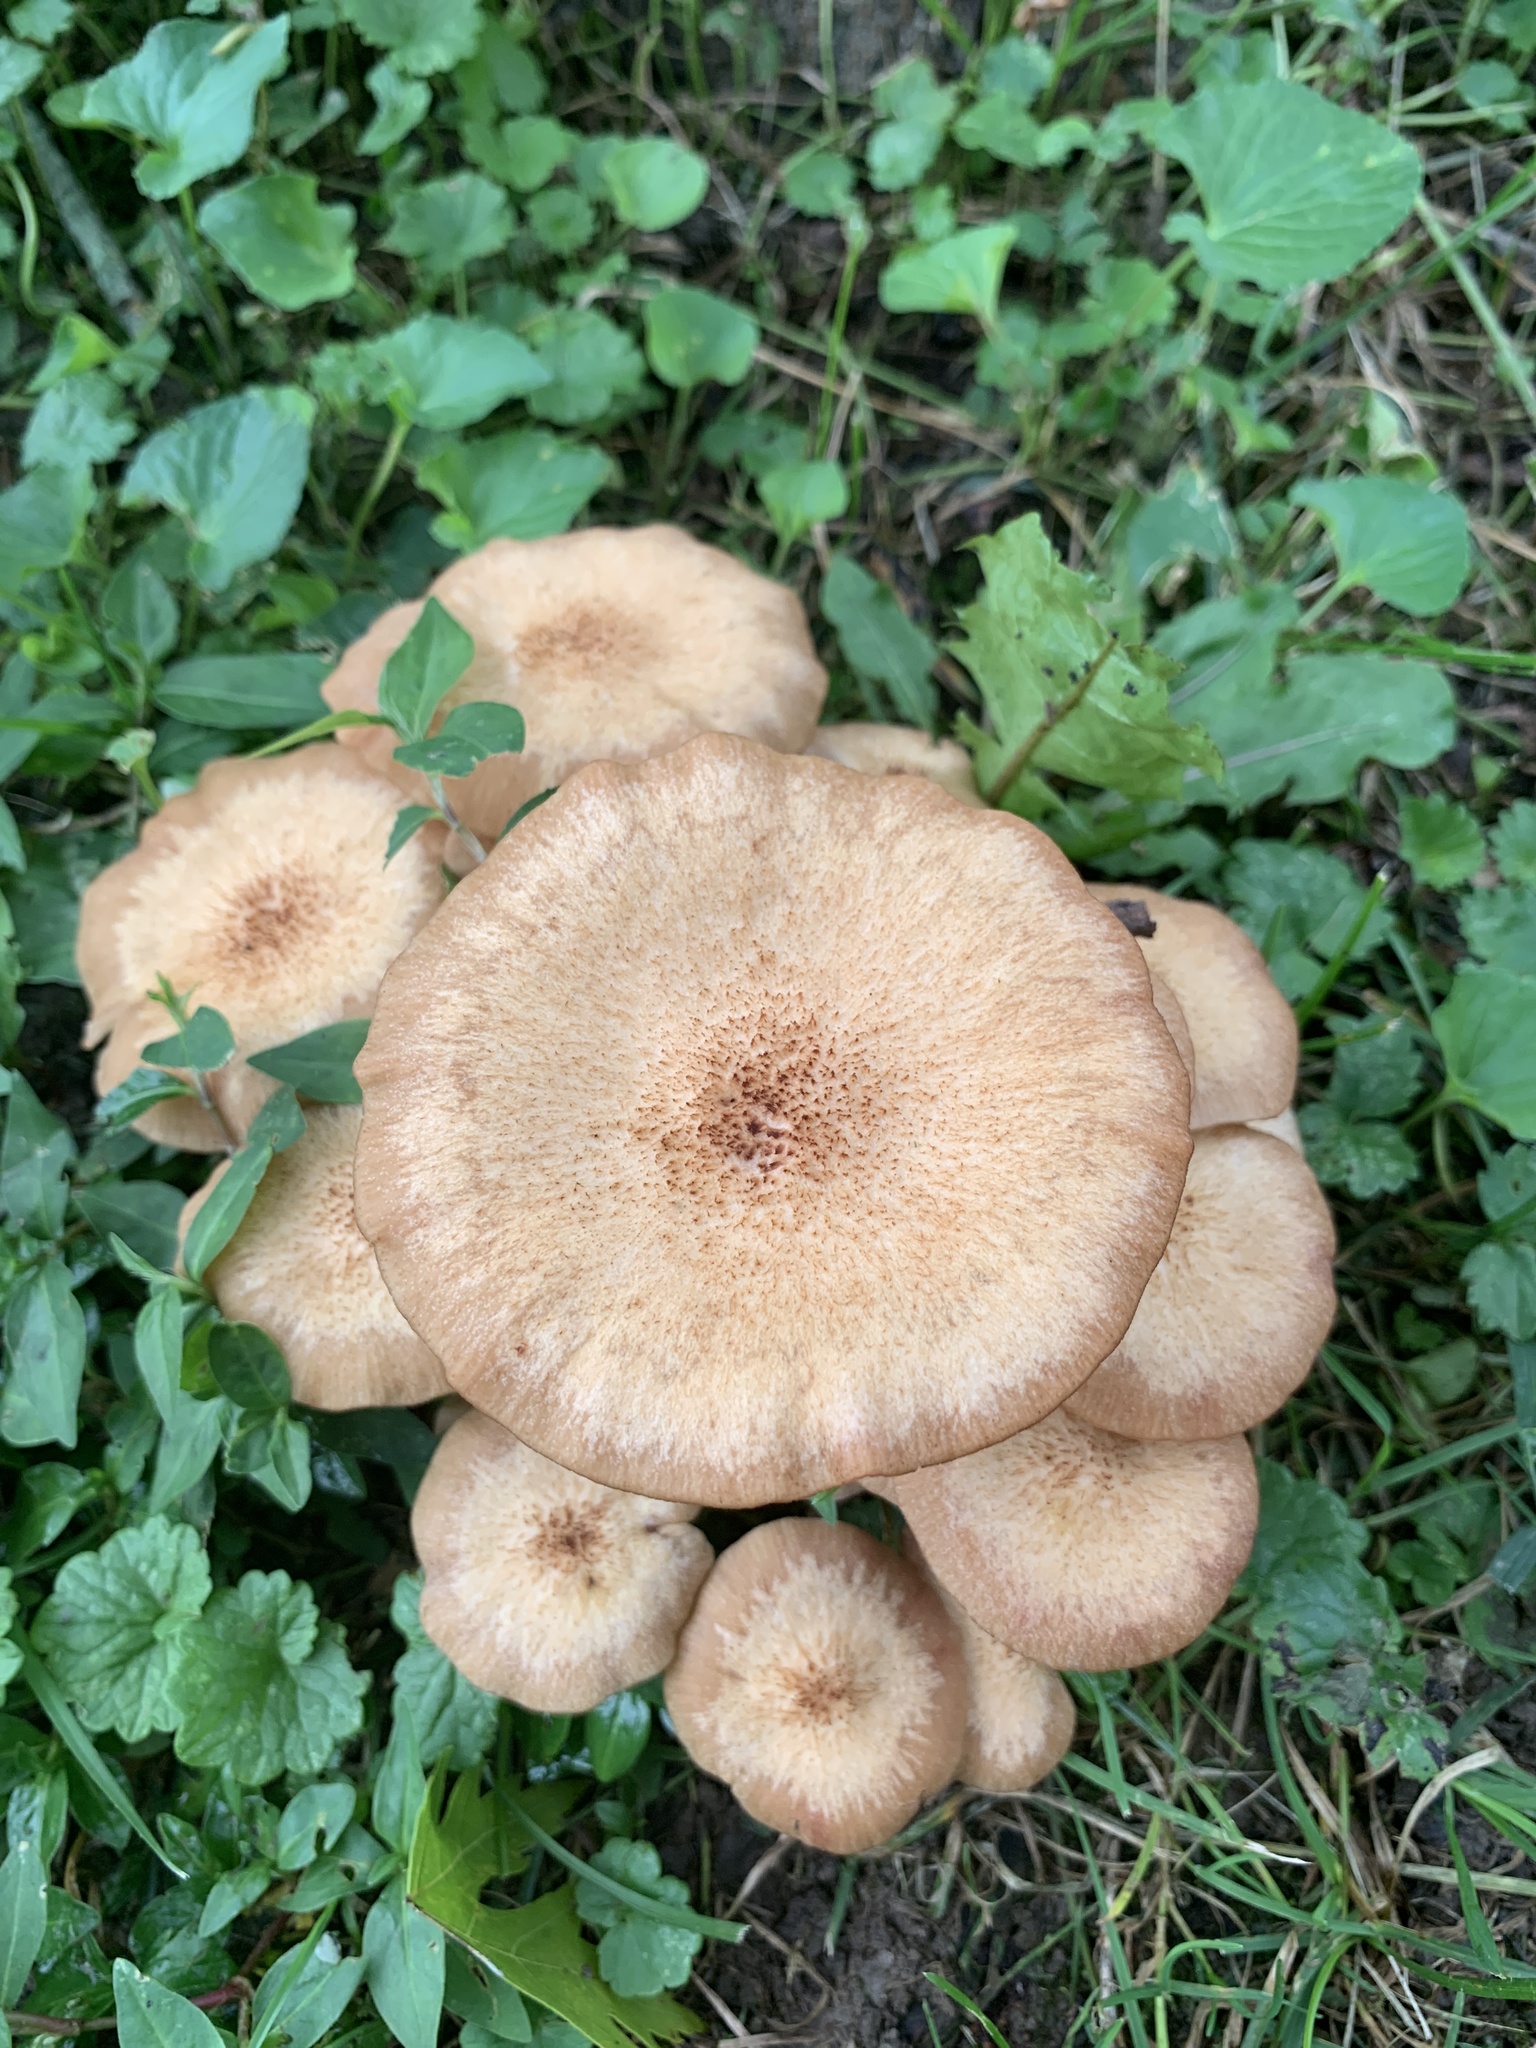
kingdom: Fungi
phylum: Basidiomycota
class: Agaricomycetes
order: Agaricales
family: Physalacriaceae
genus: Desarmillaria
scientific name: Desarmillaria caespitosa
